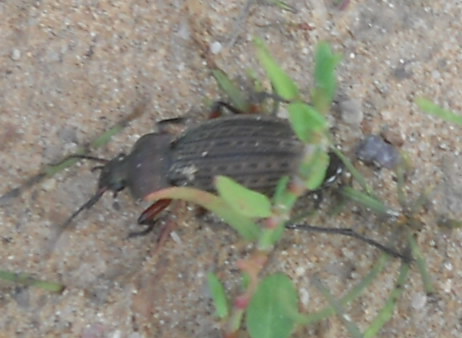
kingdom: Animalia
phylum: Arthropoda
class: Insecta
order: Coleoptera
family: Carabidae
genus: Carabus
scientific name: Carabus cancellatus
